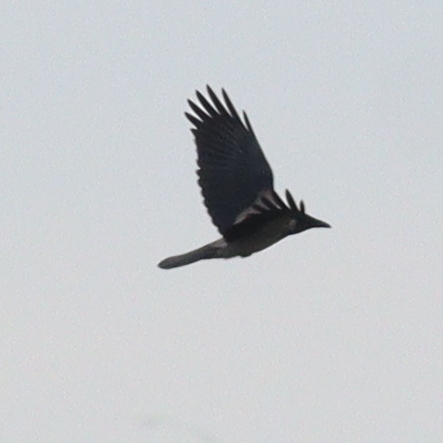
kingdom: Animalia
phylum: Chordata
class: Aves
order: Passeriformes
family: Corvidae
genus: Corvus
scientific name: Corvus cornix
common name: Hooded crow
